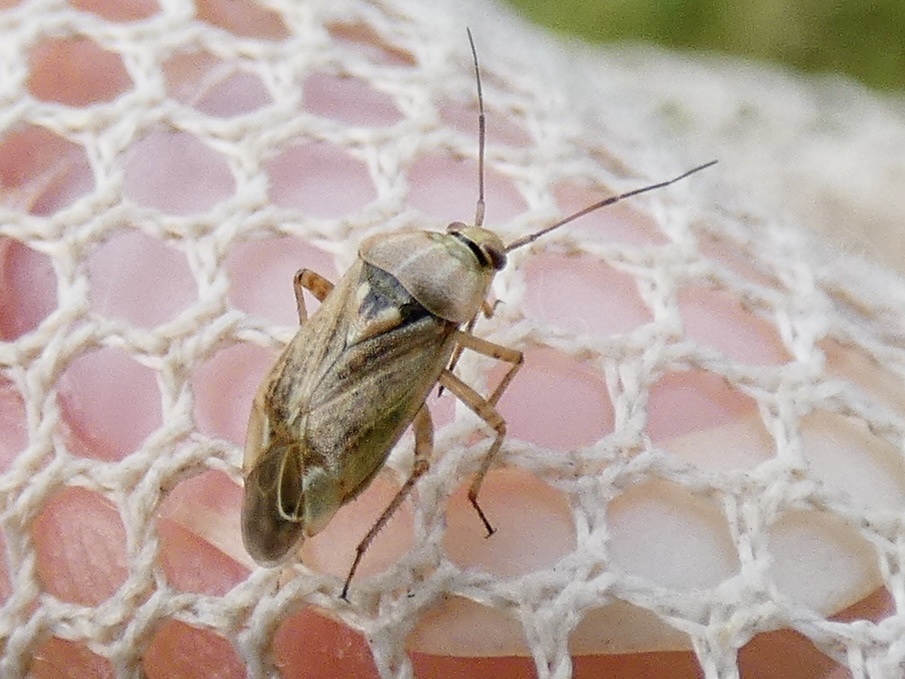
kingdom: Animalia
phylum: Arthropoda
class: Insecta
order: Hemiptera
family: Miridae
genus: Lygus
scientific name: Lygus rugulipennis
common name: European tarnished plant bug
